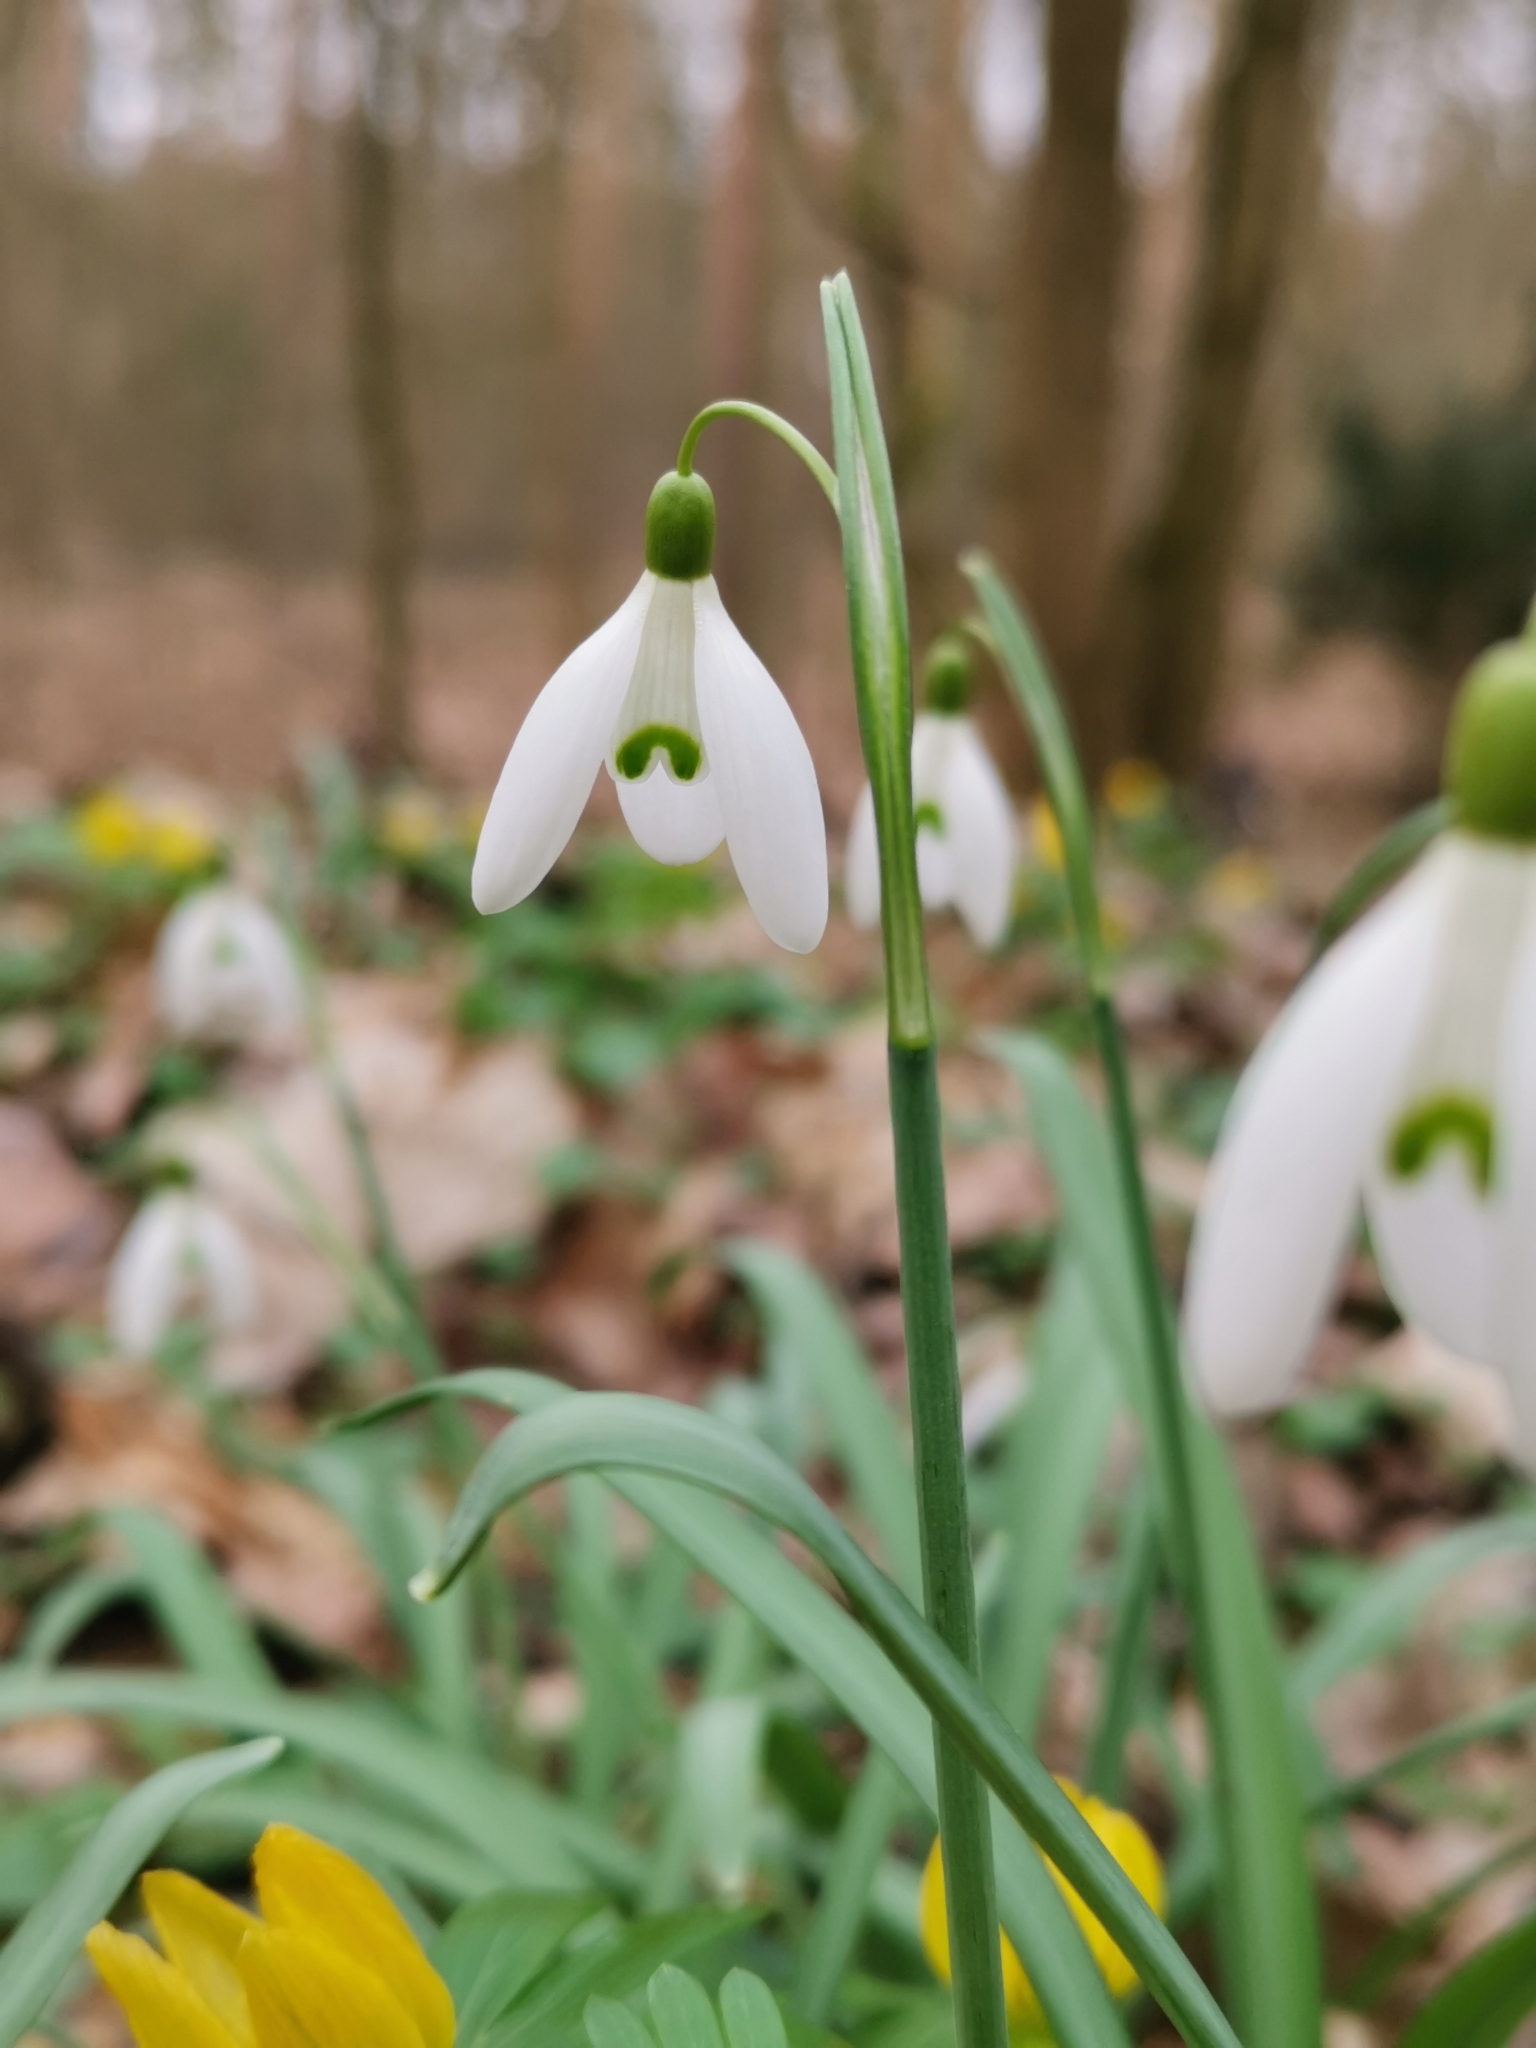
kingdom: Plantae
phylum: Tracheophyta
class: Liliopsida
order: Asparagales
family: Amaryllidaceae
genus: Galanthus
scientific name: Galanthus nivalis
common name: Snowdrop
